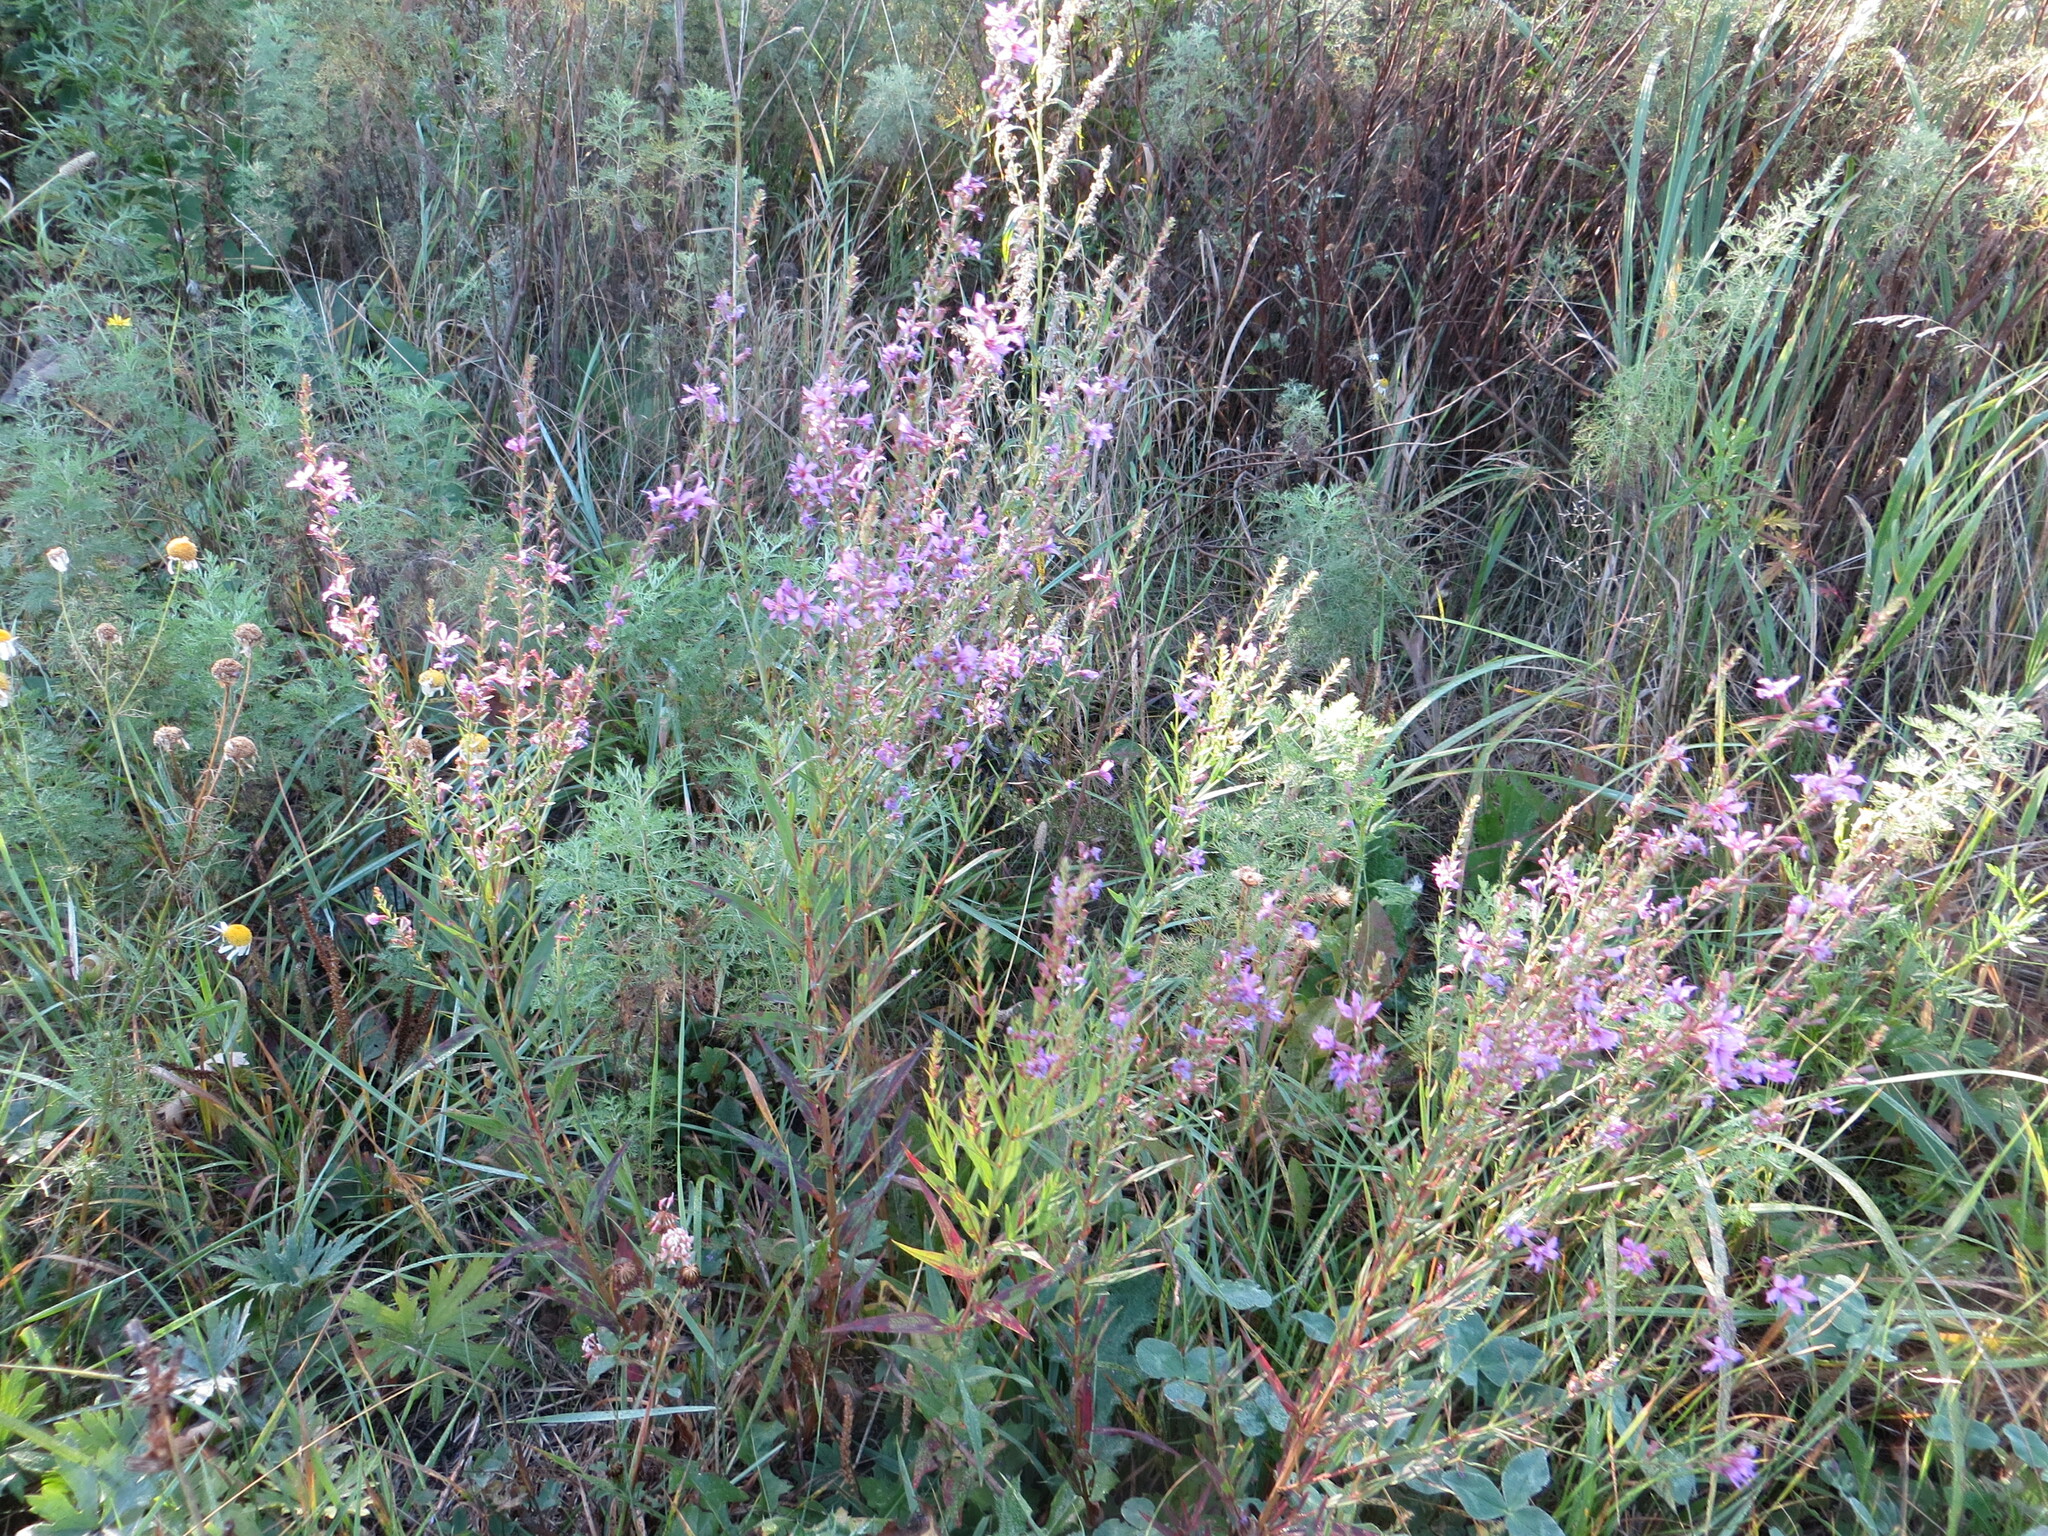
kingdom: Plantae
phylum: Tracheophyta
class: Magnoliopsida
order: Myrtales
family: Lythraceae
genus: Lythrum
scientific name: Lythrum virgatum
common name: European wand loosestrife
